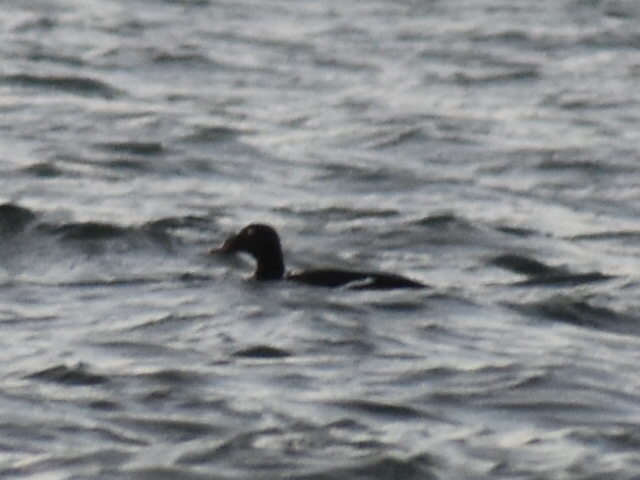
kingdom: Animalia
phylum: Chordata
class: Aves
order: Anseriformes
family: Anatidae
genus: Melanitta
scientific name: Melanitta deglandi
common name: White-winged scoter
